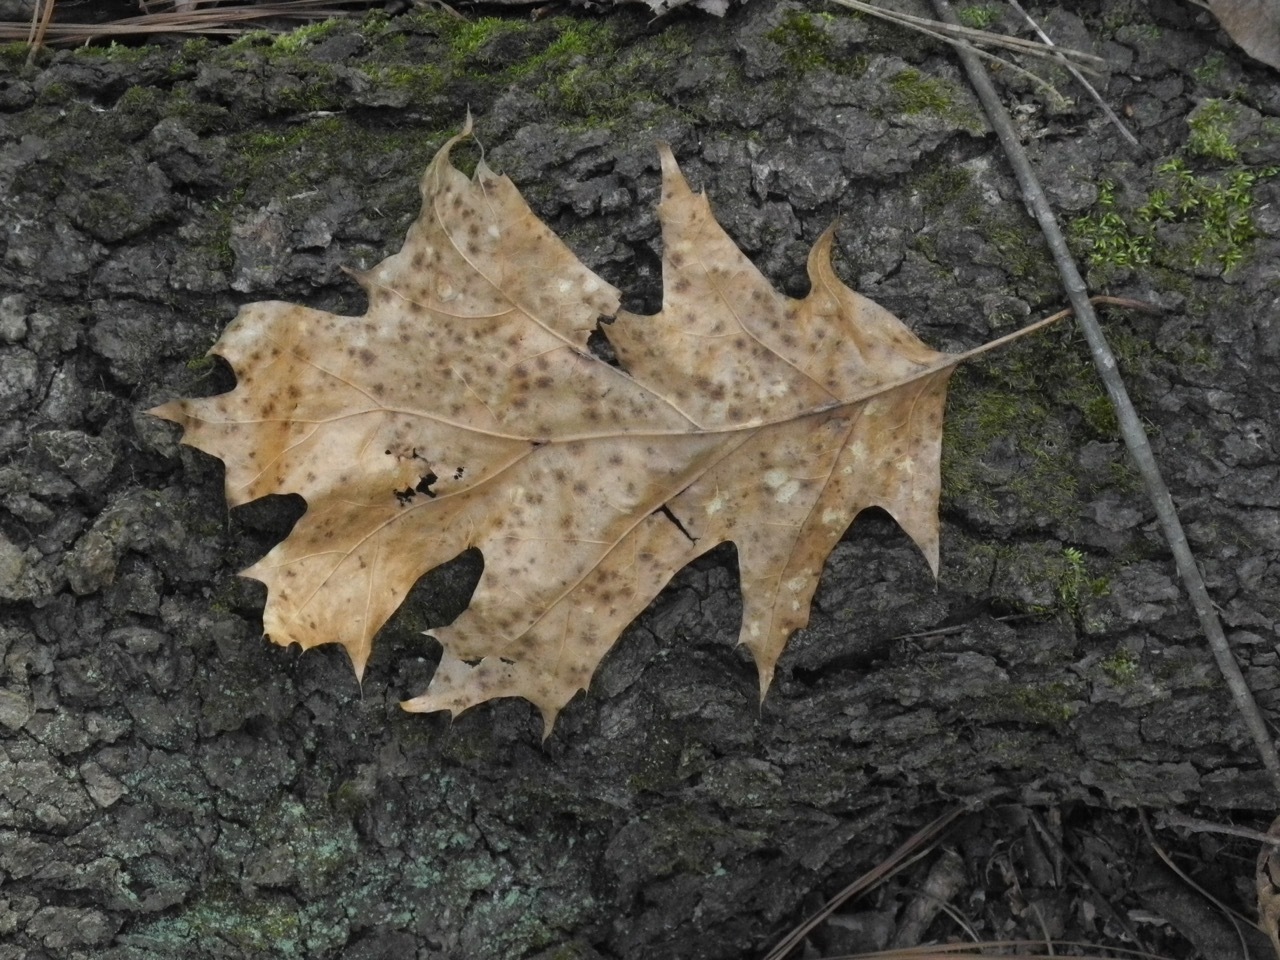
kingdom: Plantae
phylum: Tracheophyta
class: Magnoliopsida
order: Fagales
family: Fagaceae
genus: Quercus
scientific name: Quercus rubra
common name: Red oak
